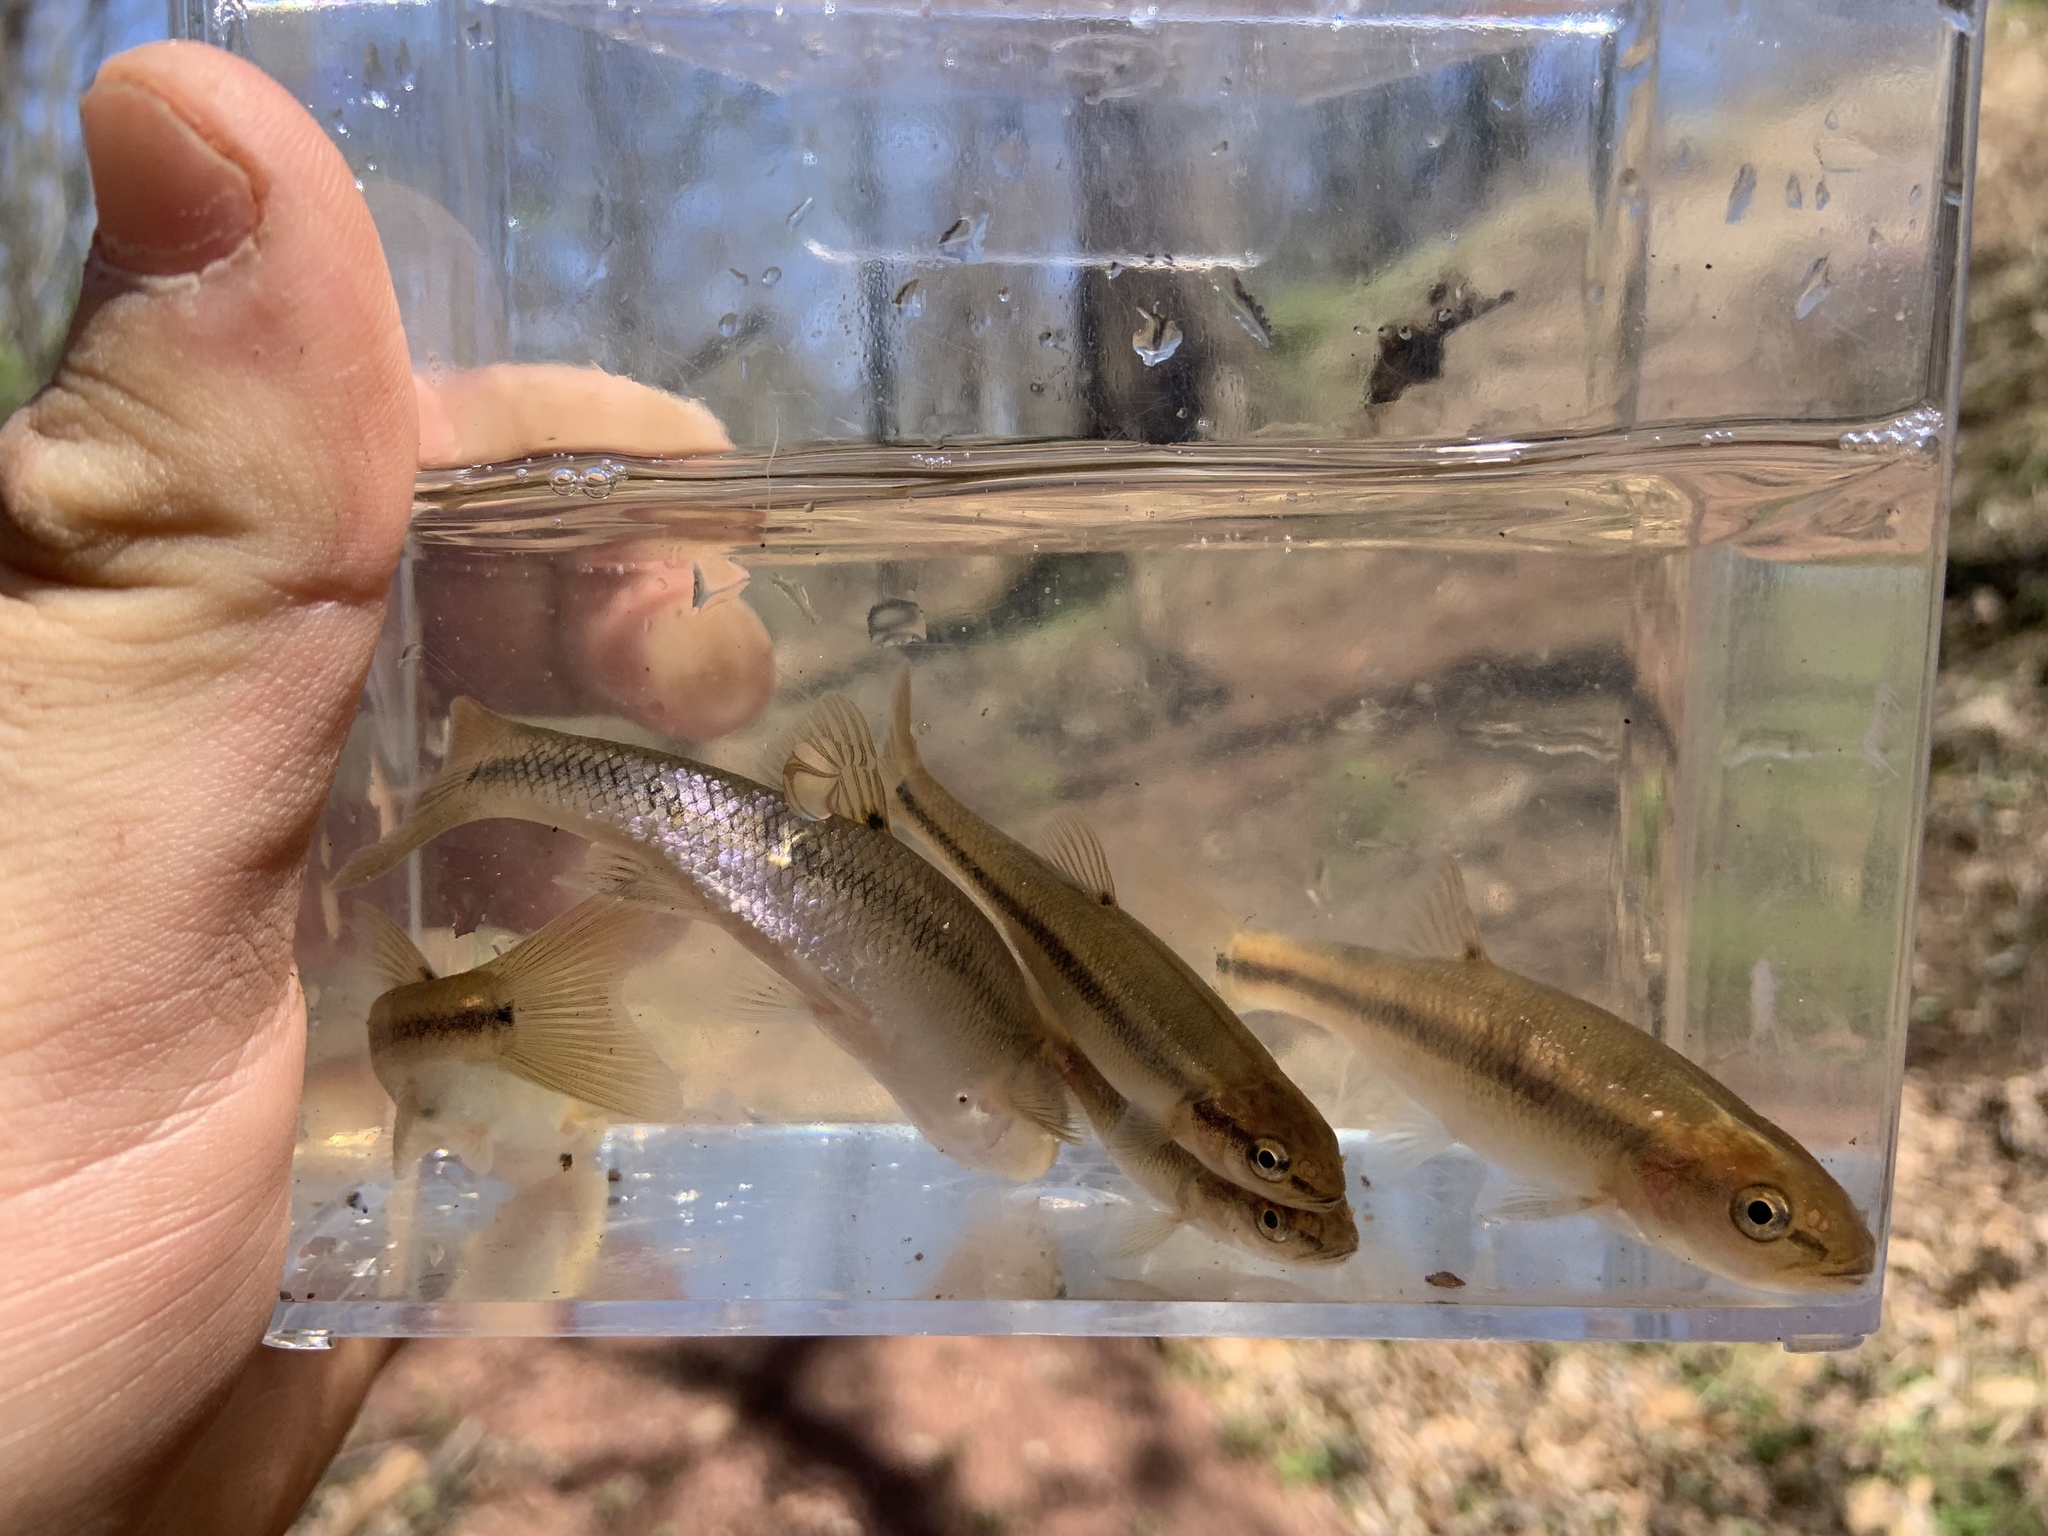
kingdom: Animalia
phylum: Chordata
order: Cypriniformes
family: Cyprinidae
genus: Semotilus
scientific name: Semotilus atromaculatus
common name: Creek chub
